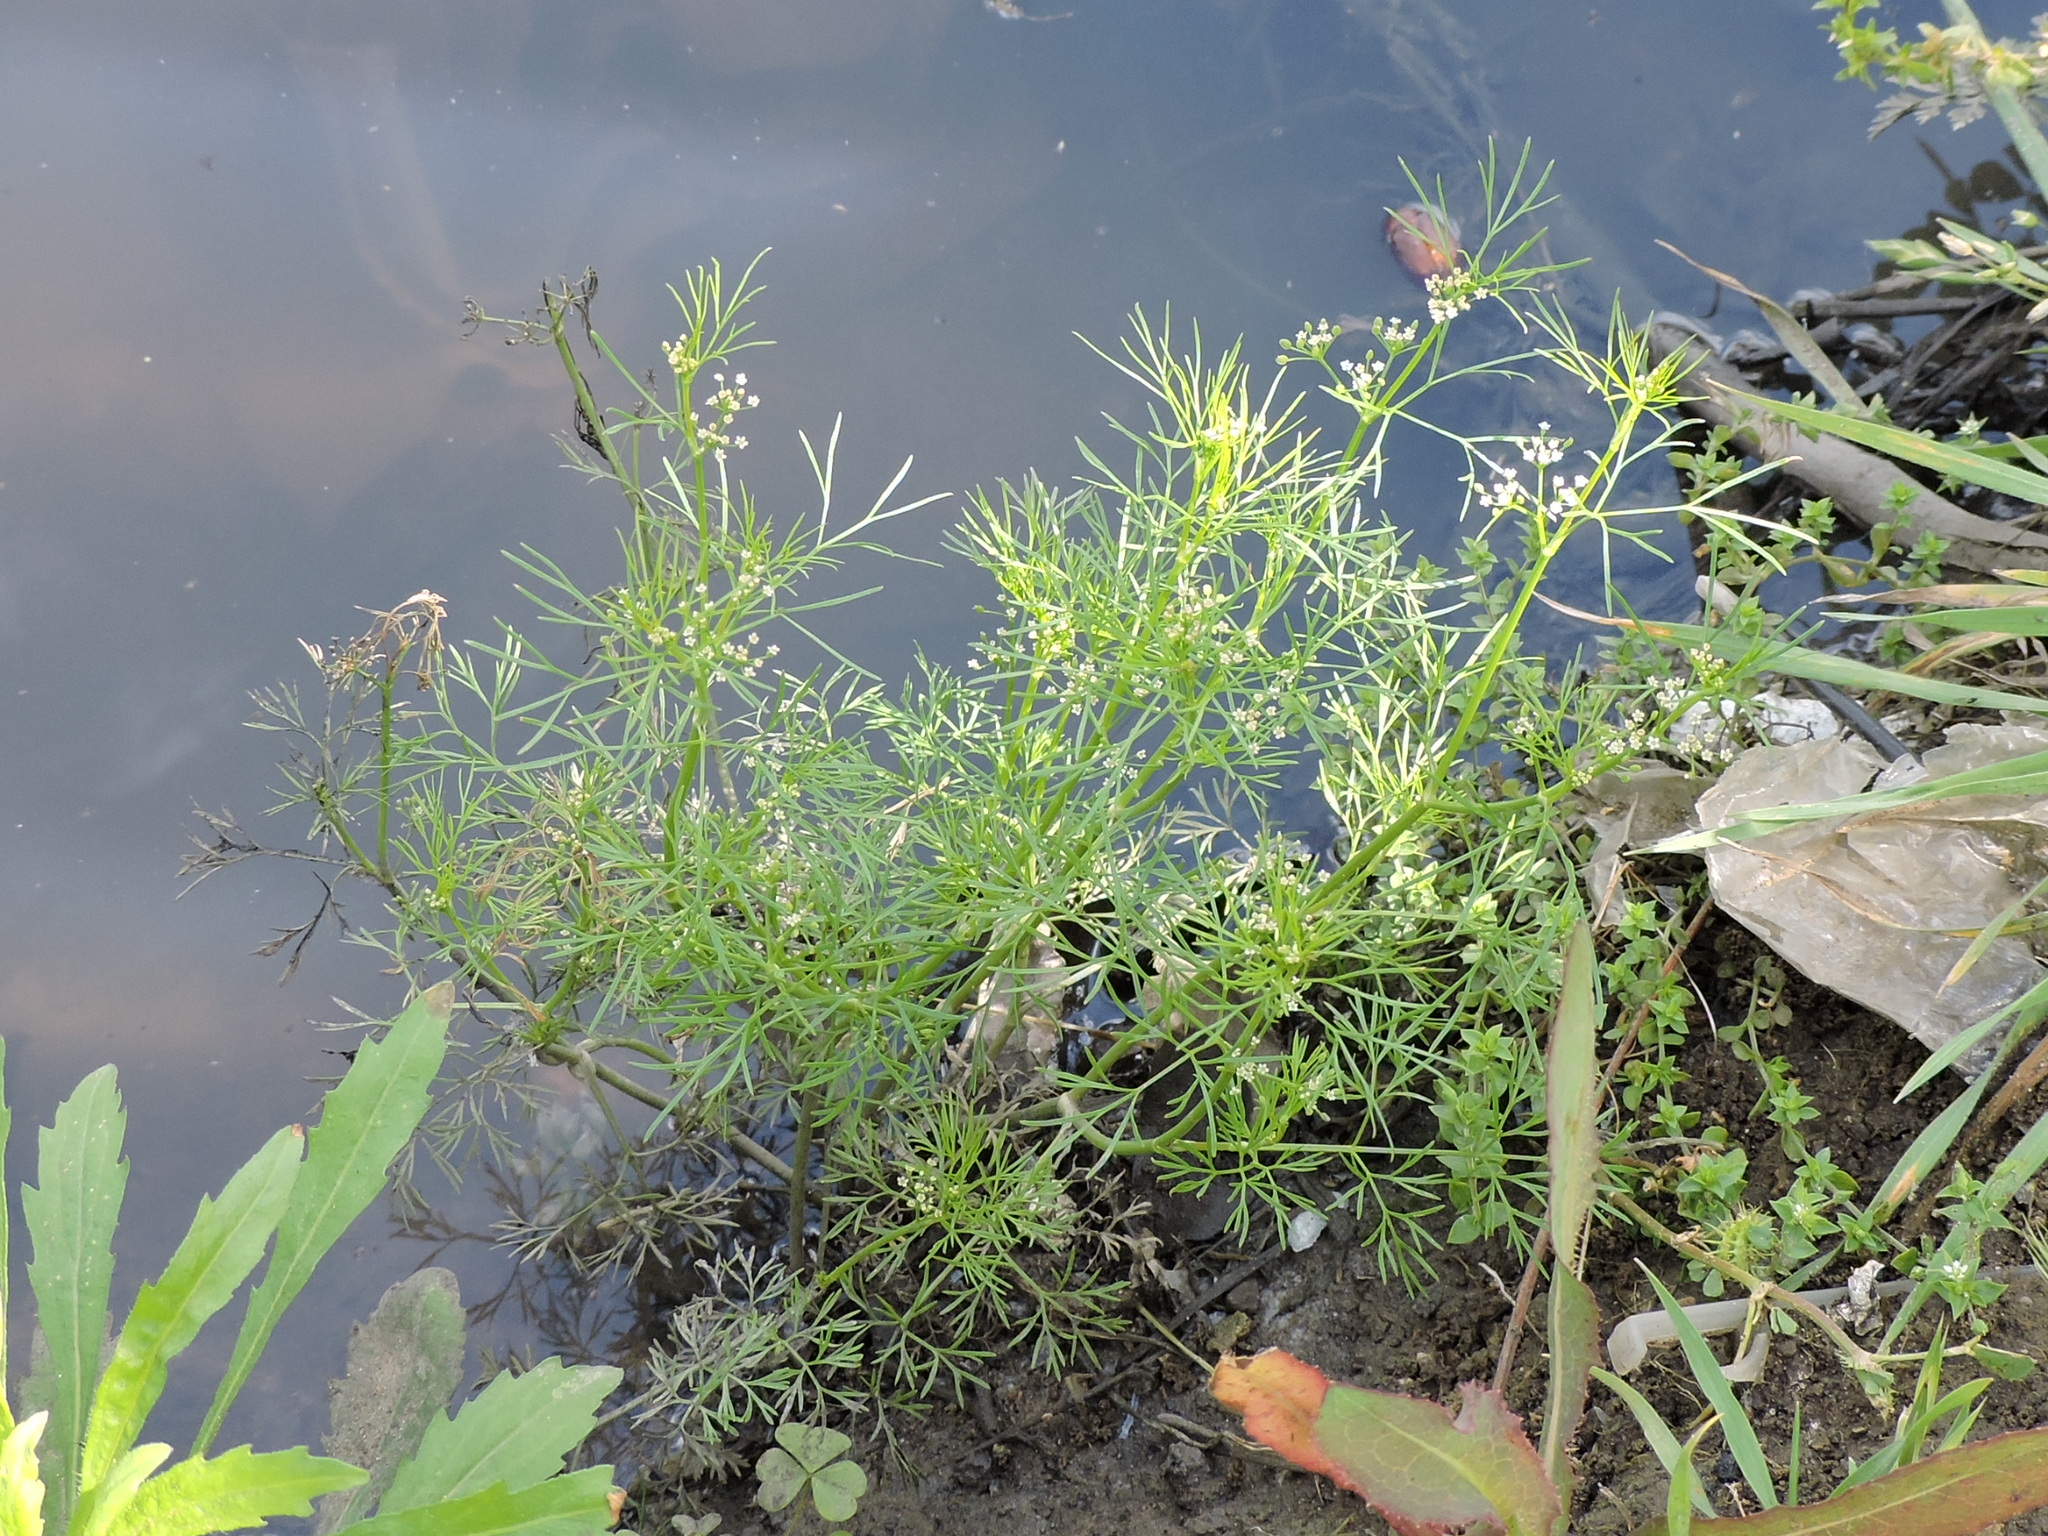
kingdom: Plantae
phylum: Tracheophyta
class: Magnoliopsida
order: Apiales
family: Apiaceae
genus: Cyclospermum
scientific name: Cyclospermum leptophyllum
